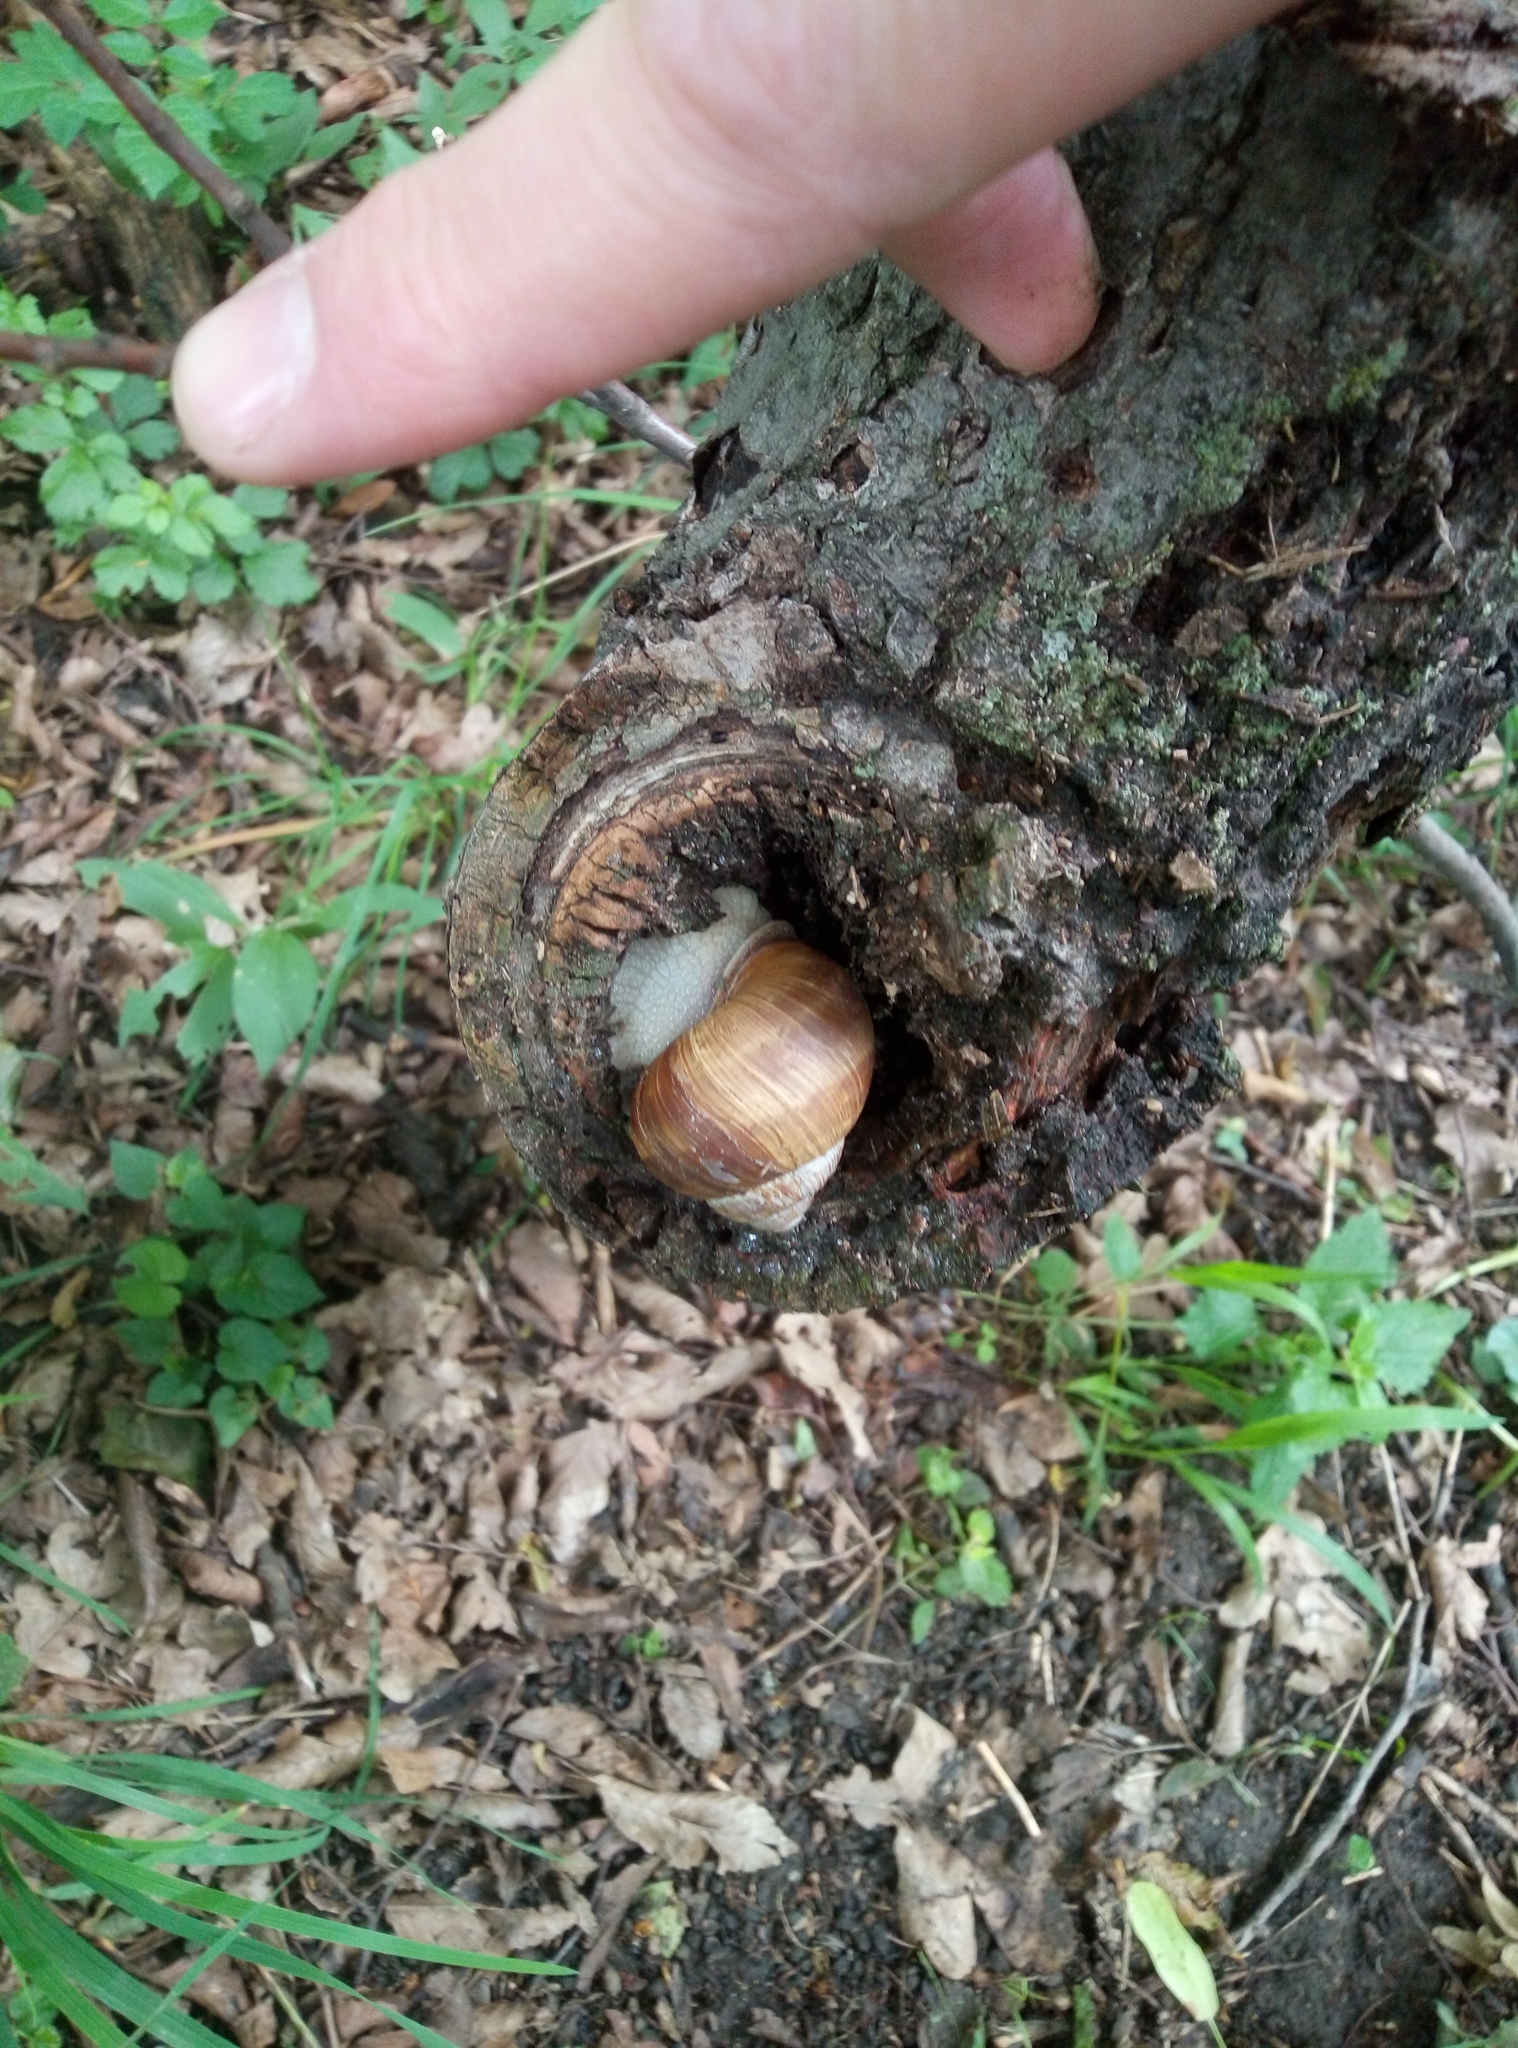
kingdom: Animalia
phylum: Mollusca
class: Gastropoda
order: Stylommatophora
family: Helicidae
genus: Helix
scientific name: Helix pomatia
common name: Roman snail
